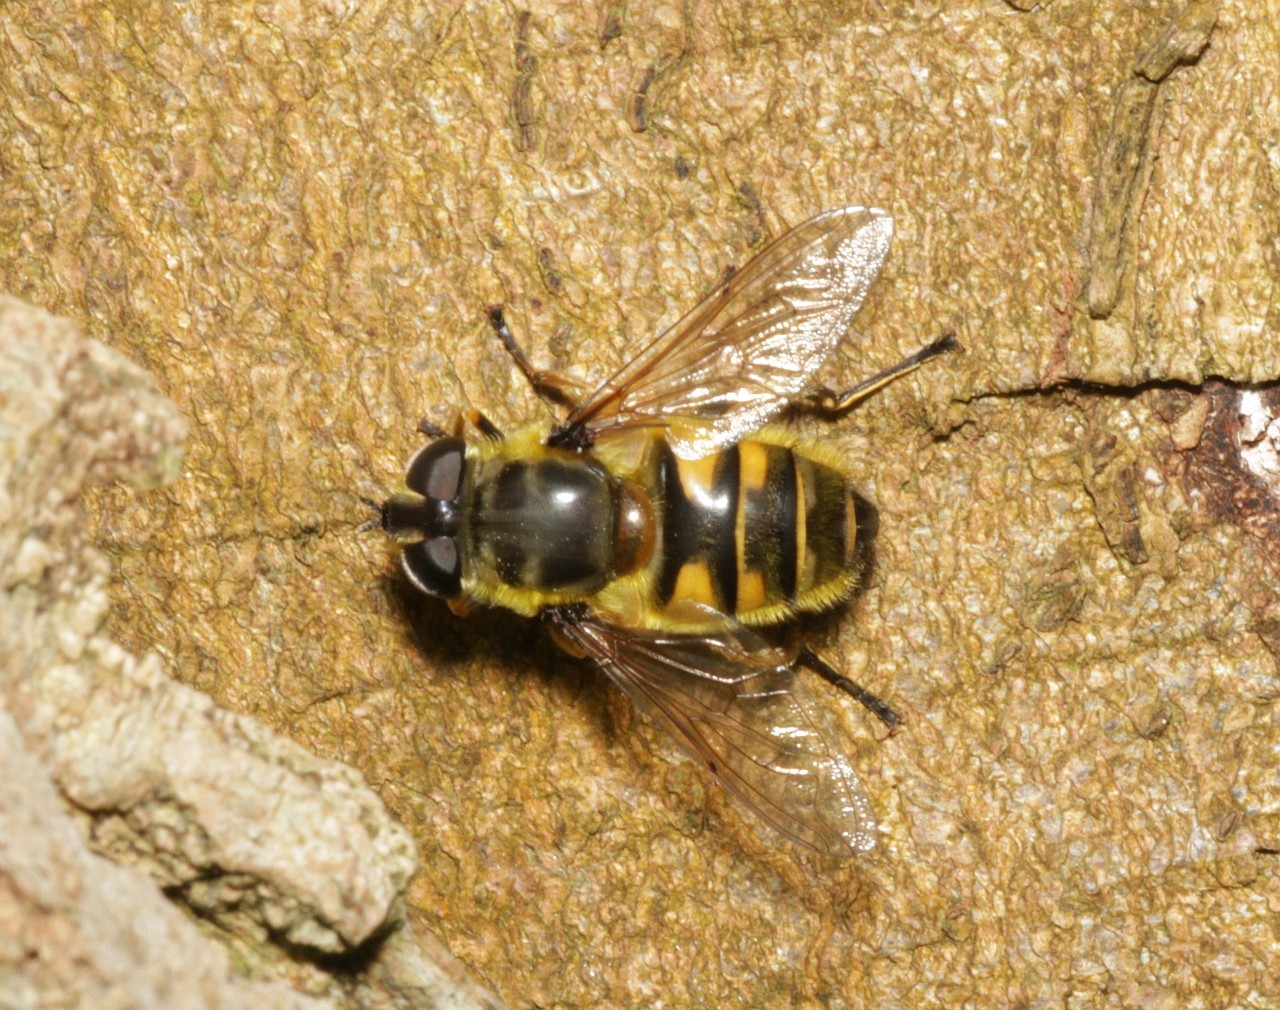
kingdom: Animalia
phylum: Arthropoda
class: Insecta
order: Diptera
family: Syrphidae
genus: Myathropa
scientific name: Myathropa florea
